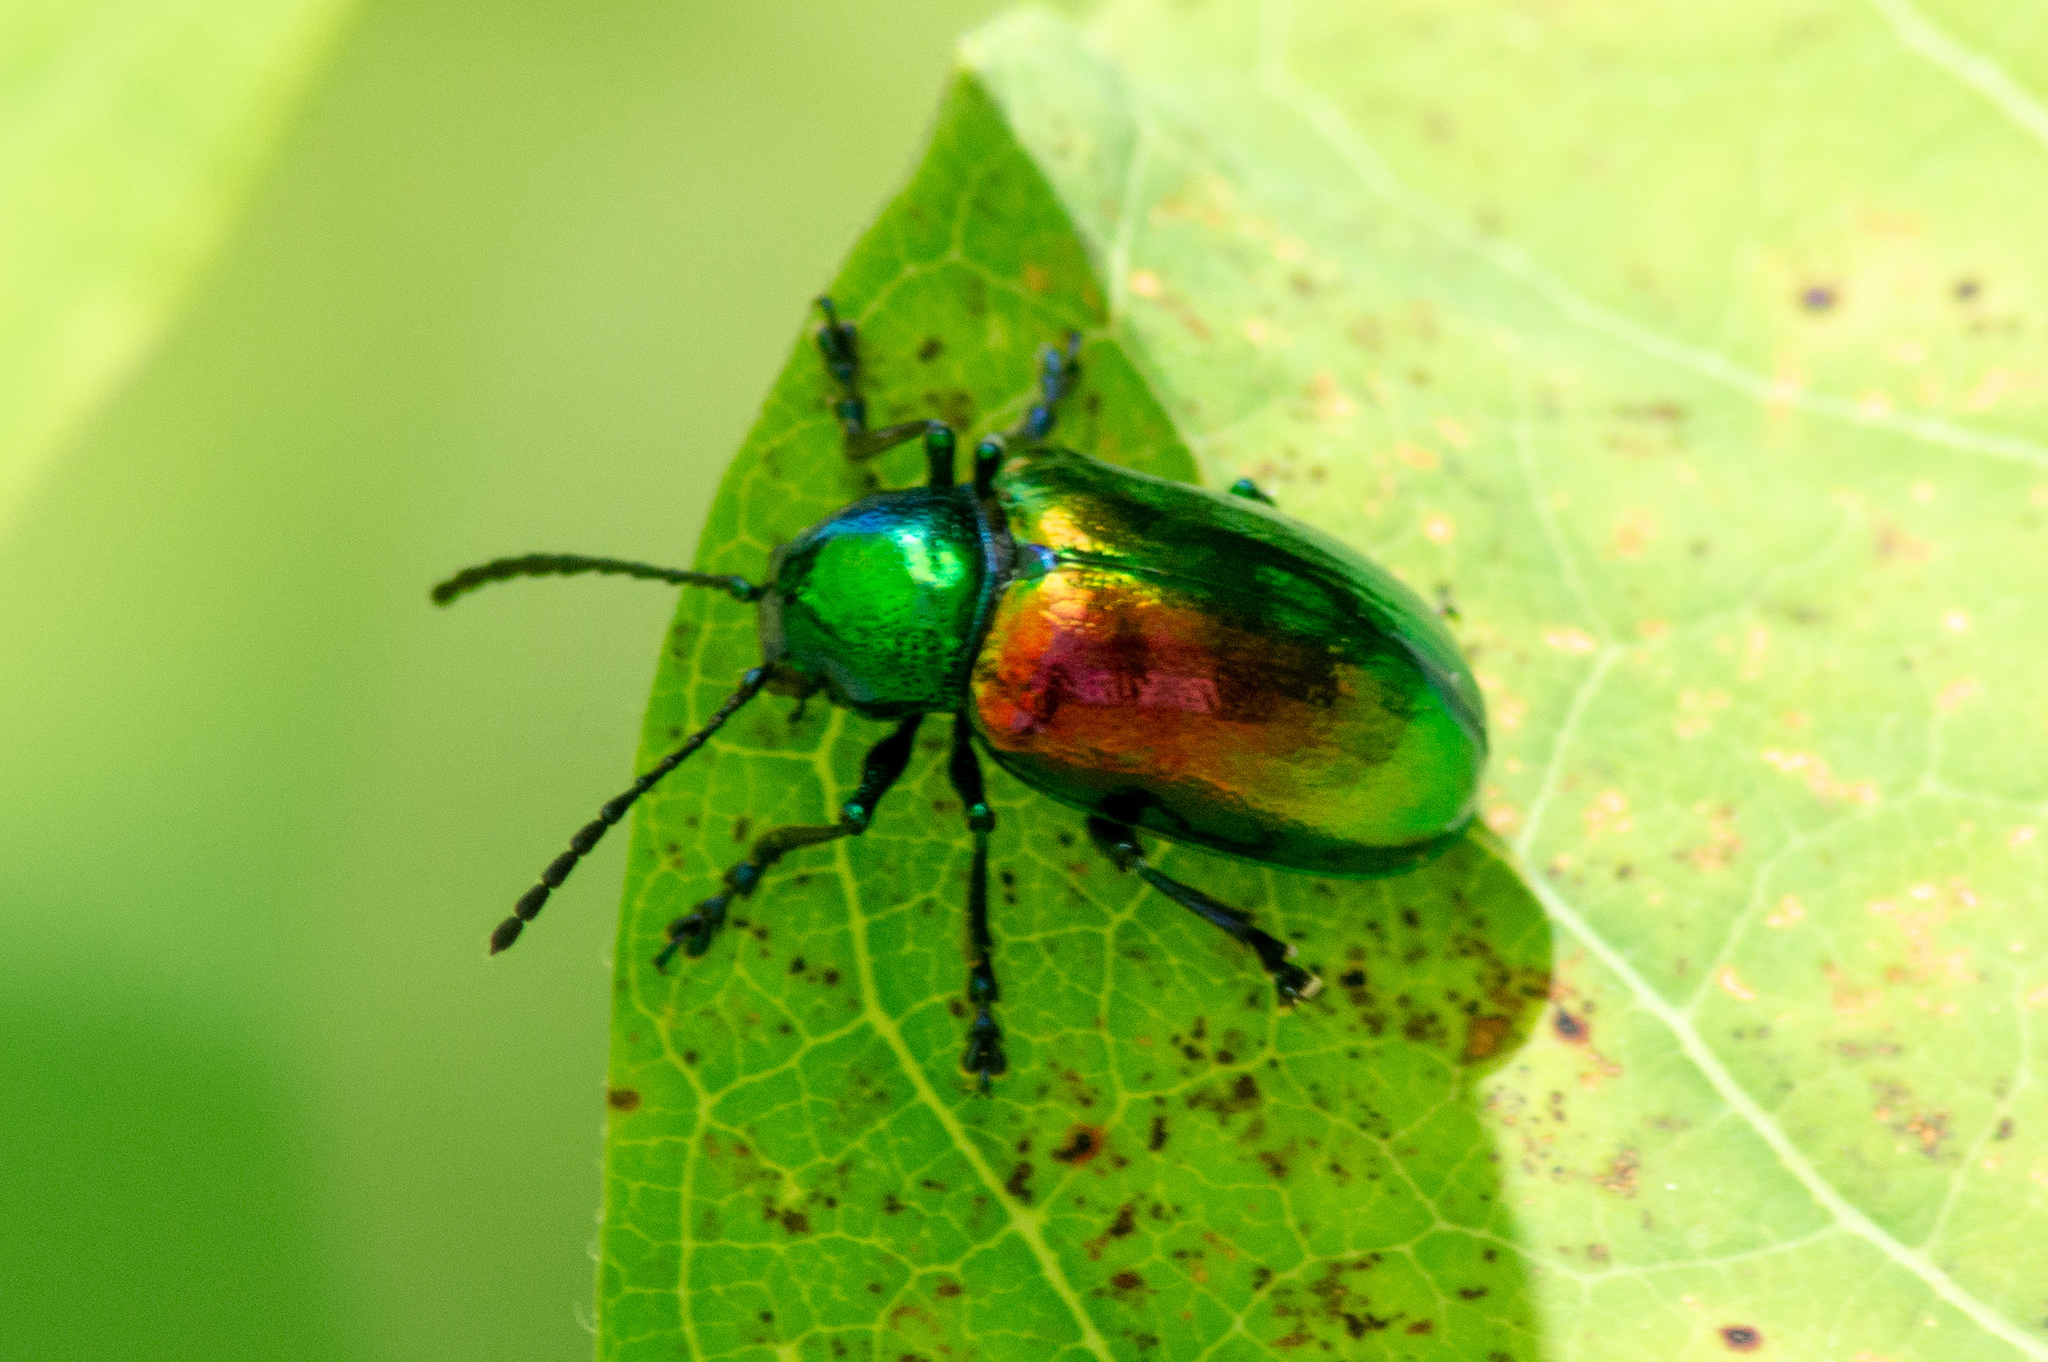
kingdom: Animalia
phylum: Arthropoda
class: Insecta
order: Coleoptera
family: Chrysomelidae
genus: Chrysochus
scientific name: Chrysochus auratus
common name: Dogbane leaf beetle
